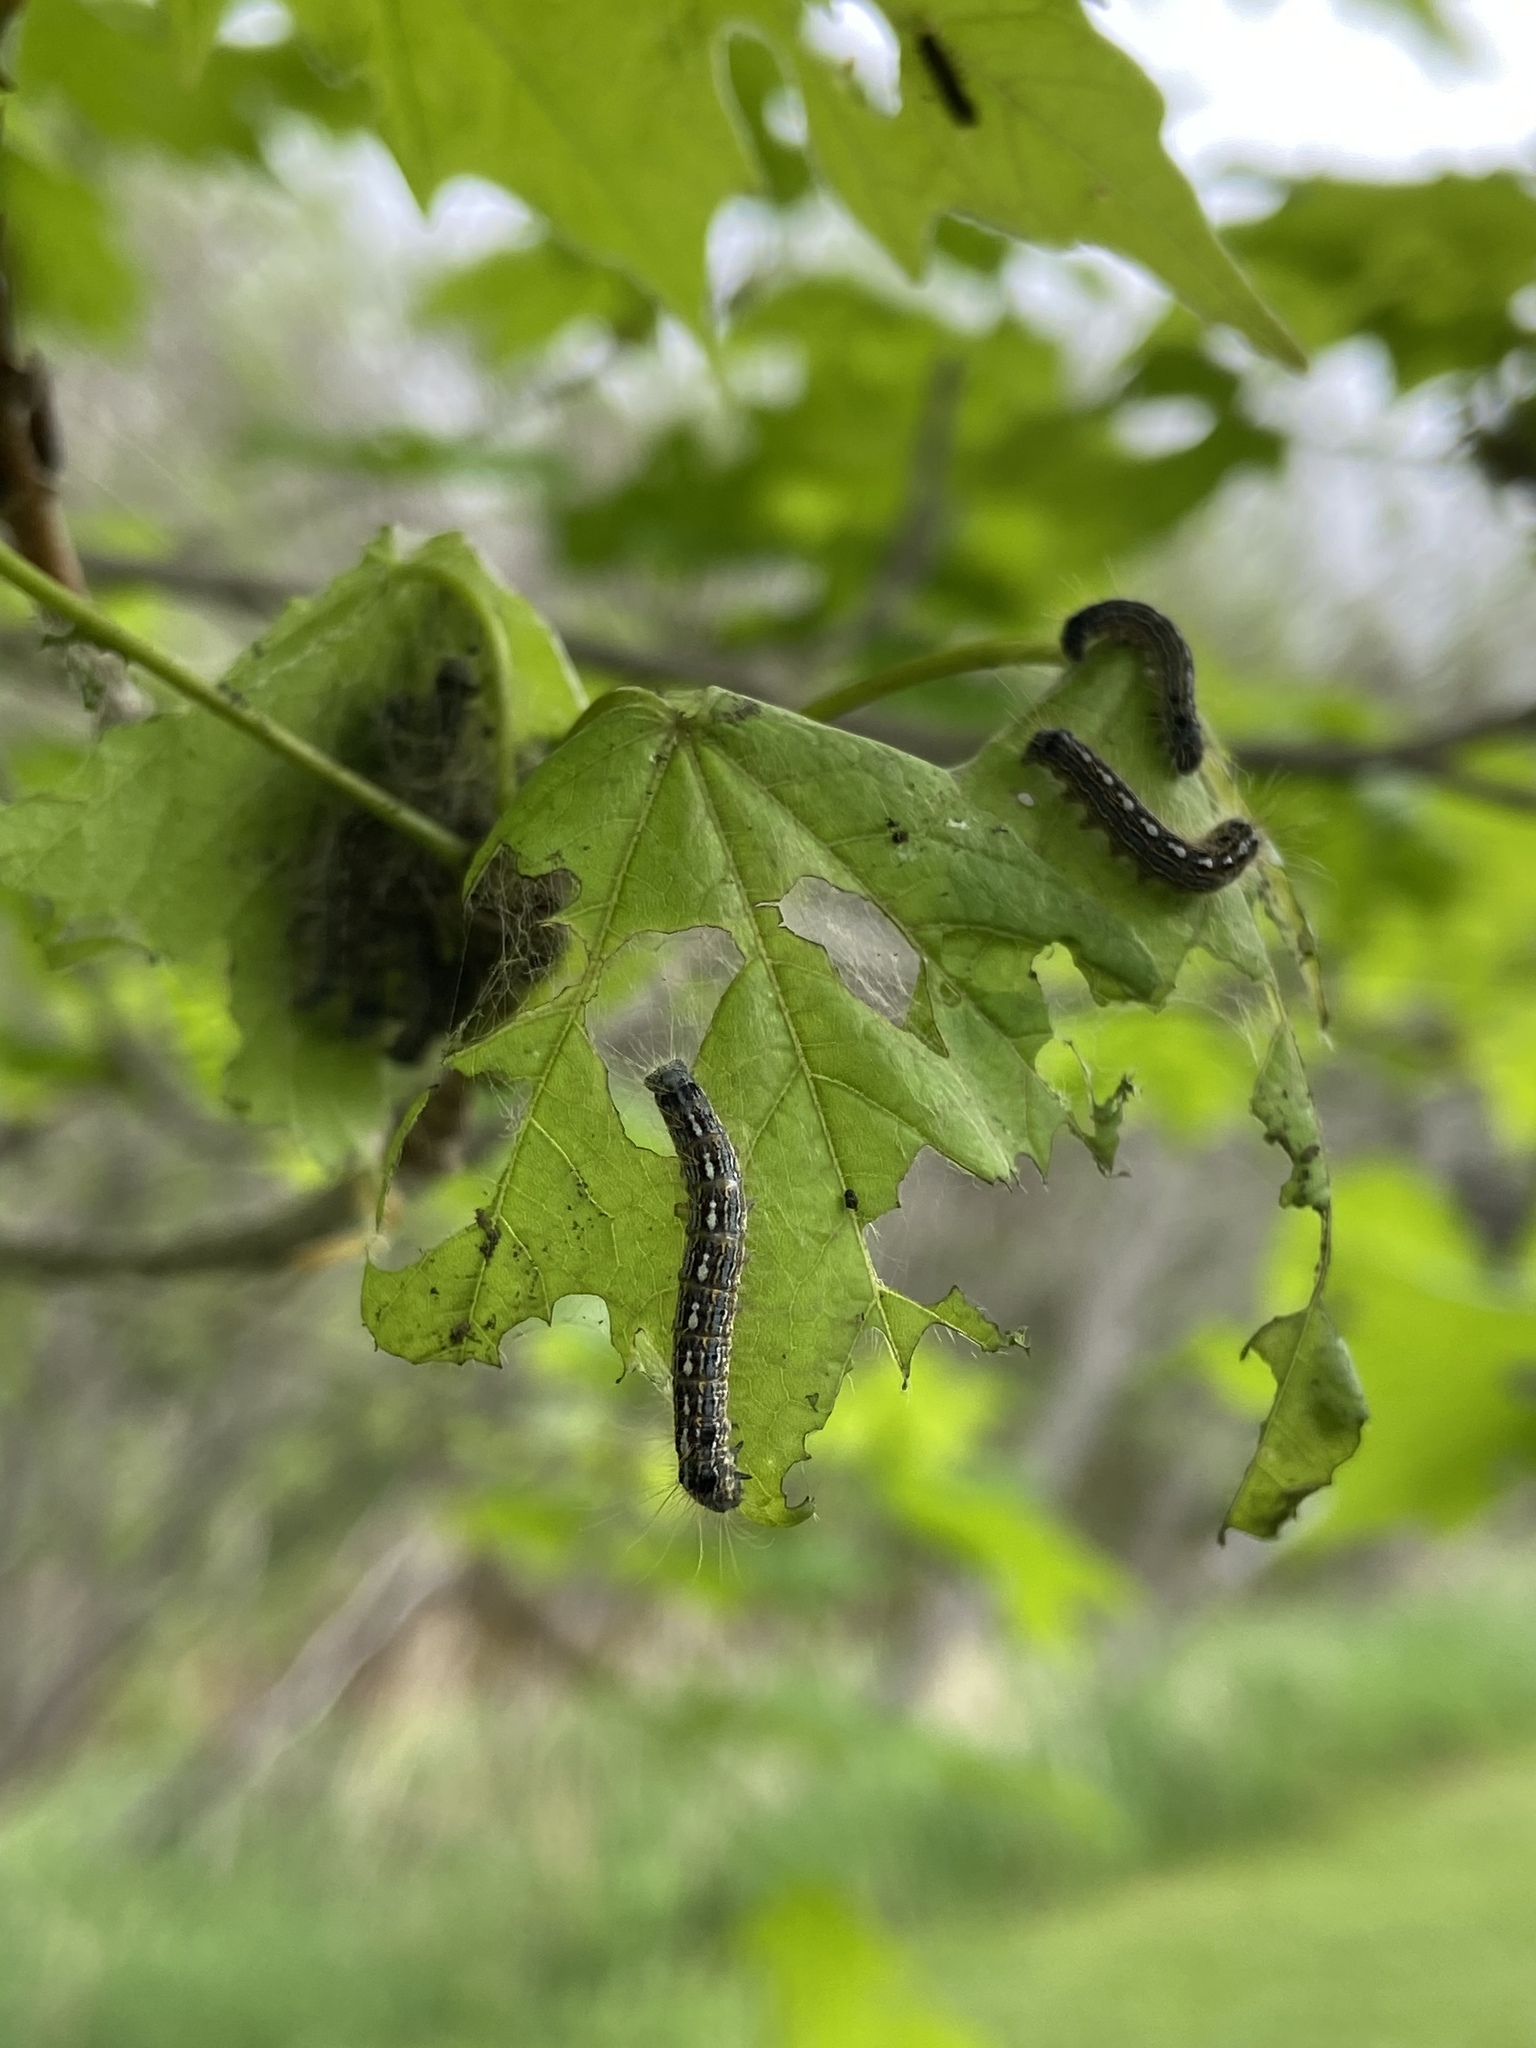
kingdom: Animalia
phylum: Arthropoda
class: Insecta
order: Lepidoptera
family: Lasiocampidae
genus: Malacosoma
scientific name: Malacosoma disstria
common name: Forest tent caterpillar
